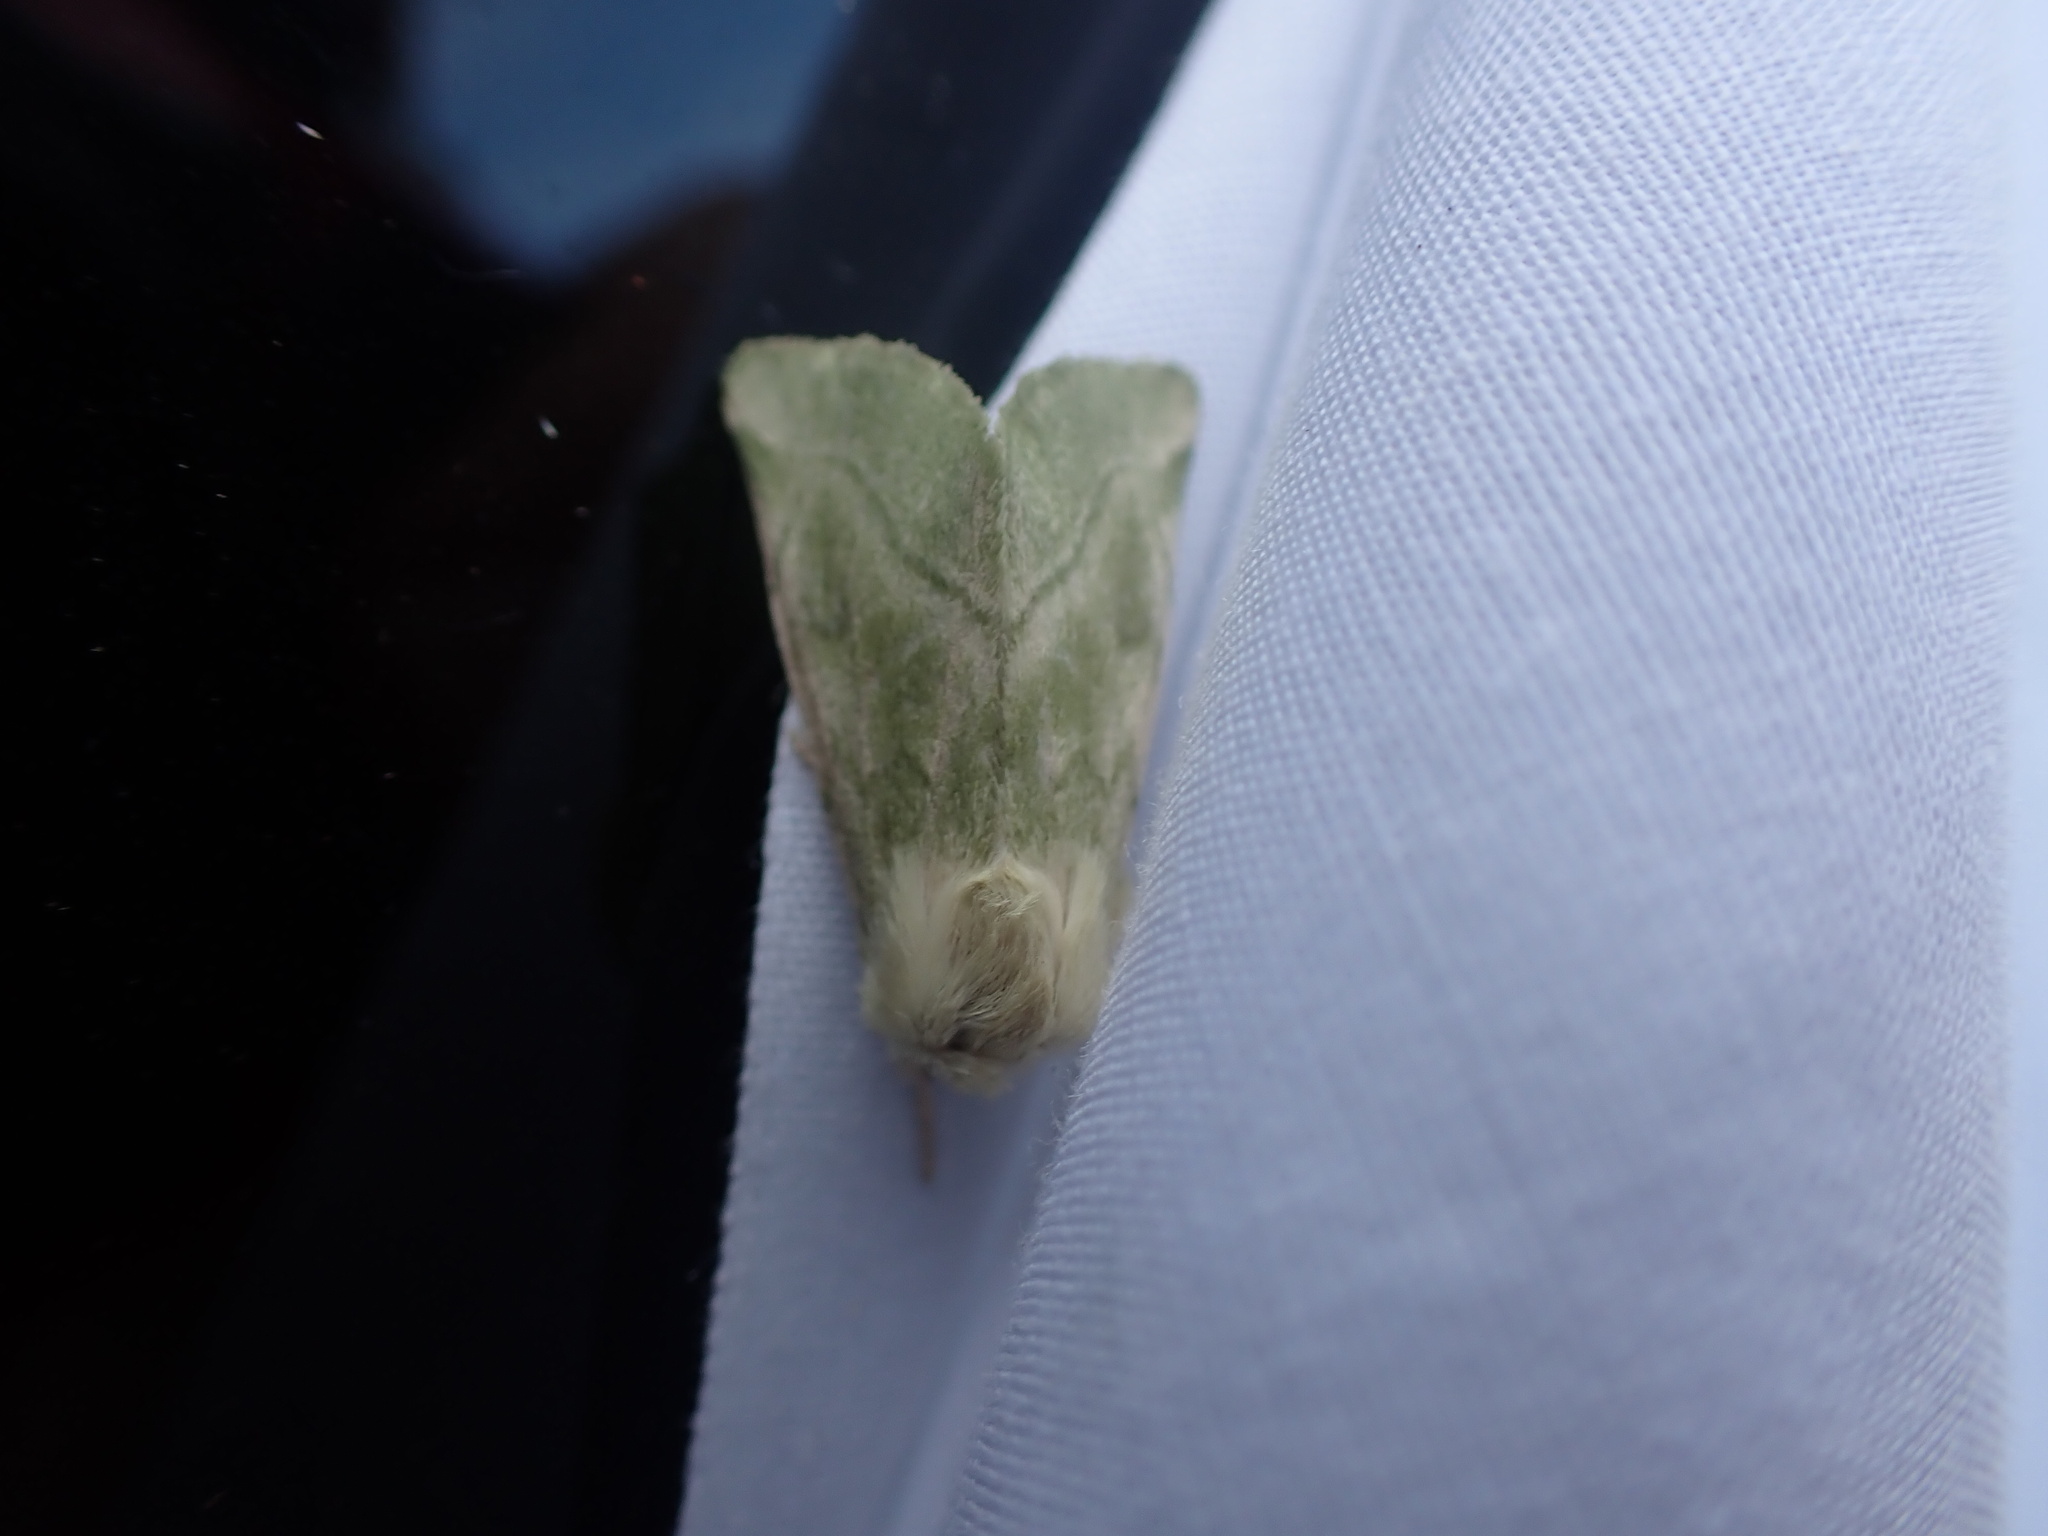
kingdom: Animalia
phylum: Arthropoda
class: Insecta
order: Lepidoptera
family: Noctuidae
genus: Zotheca
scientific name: Zotheca tranquilla
